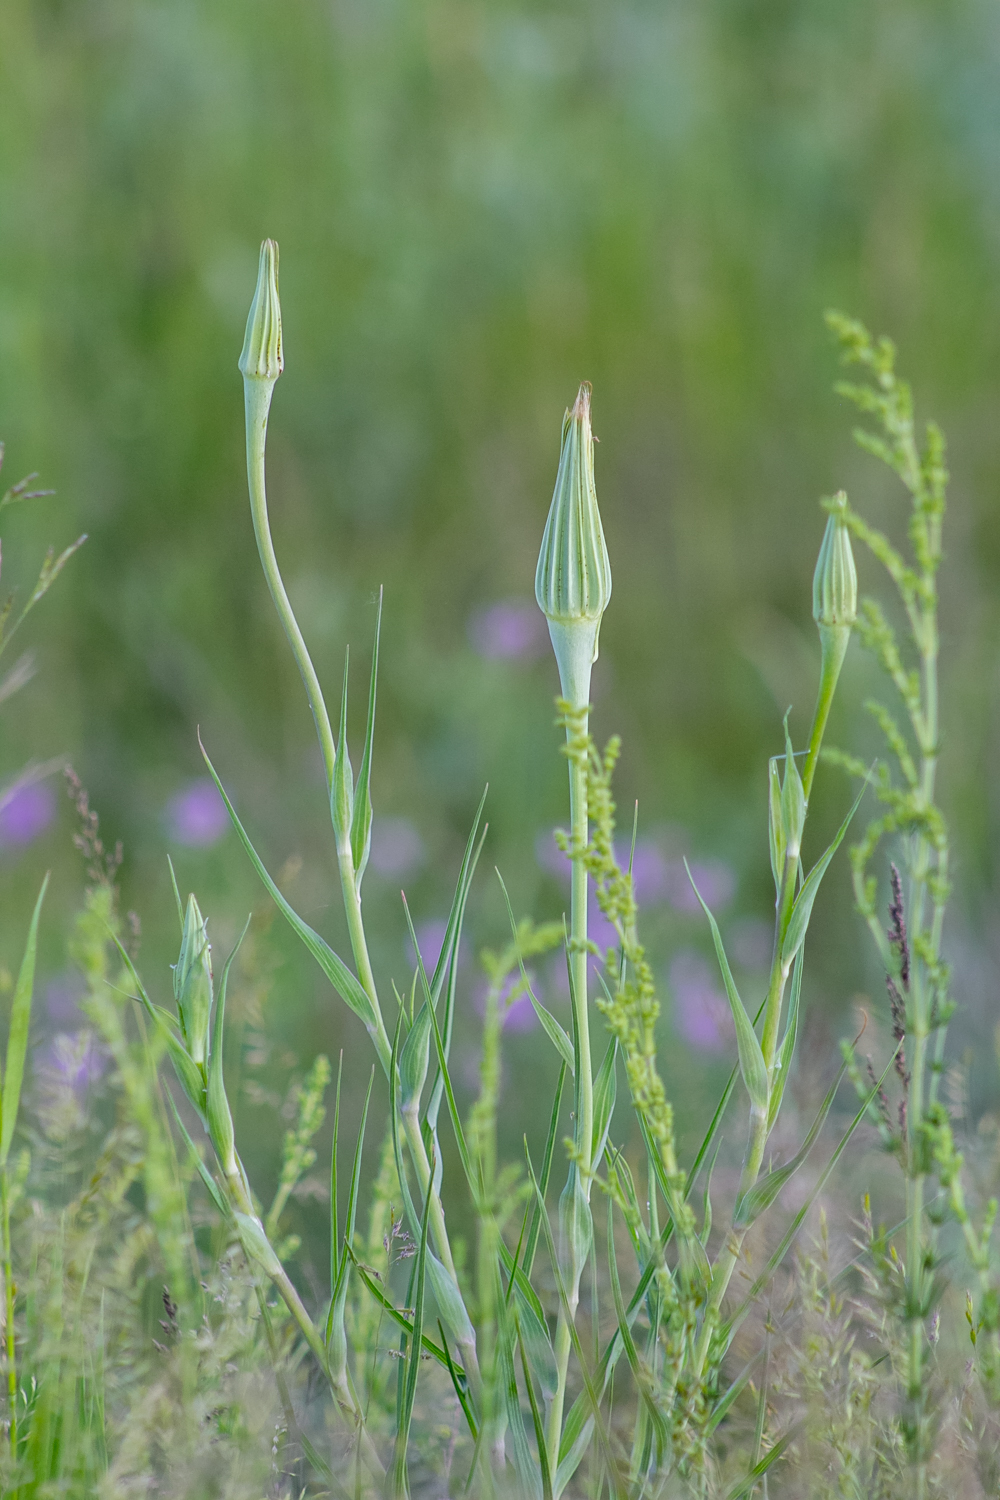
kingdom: Plantae
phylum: Tracheophyta
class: Magnoliopsida
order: Asterales
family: Asteraceae
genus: Tragopogon
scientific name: Tragopogon dubius
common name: Yellow salsify
